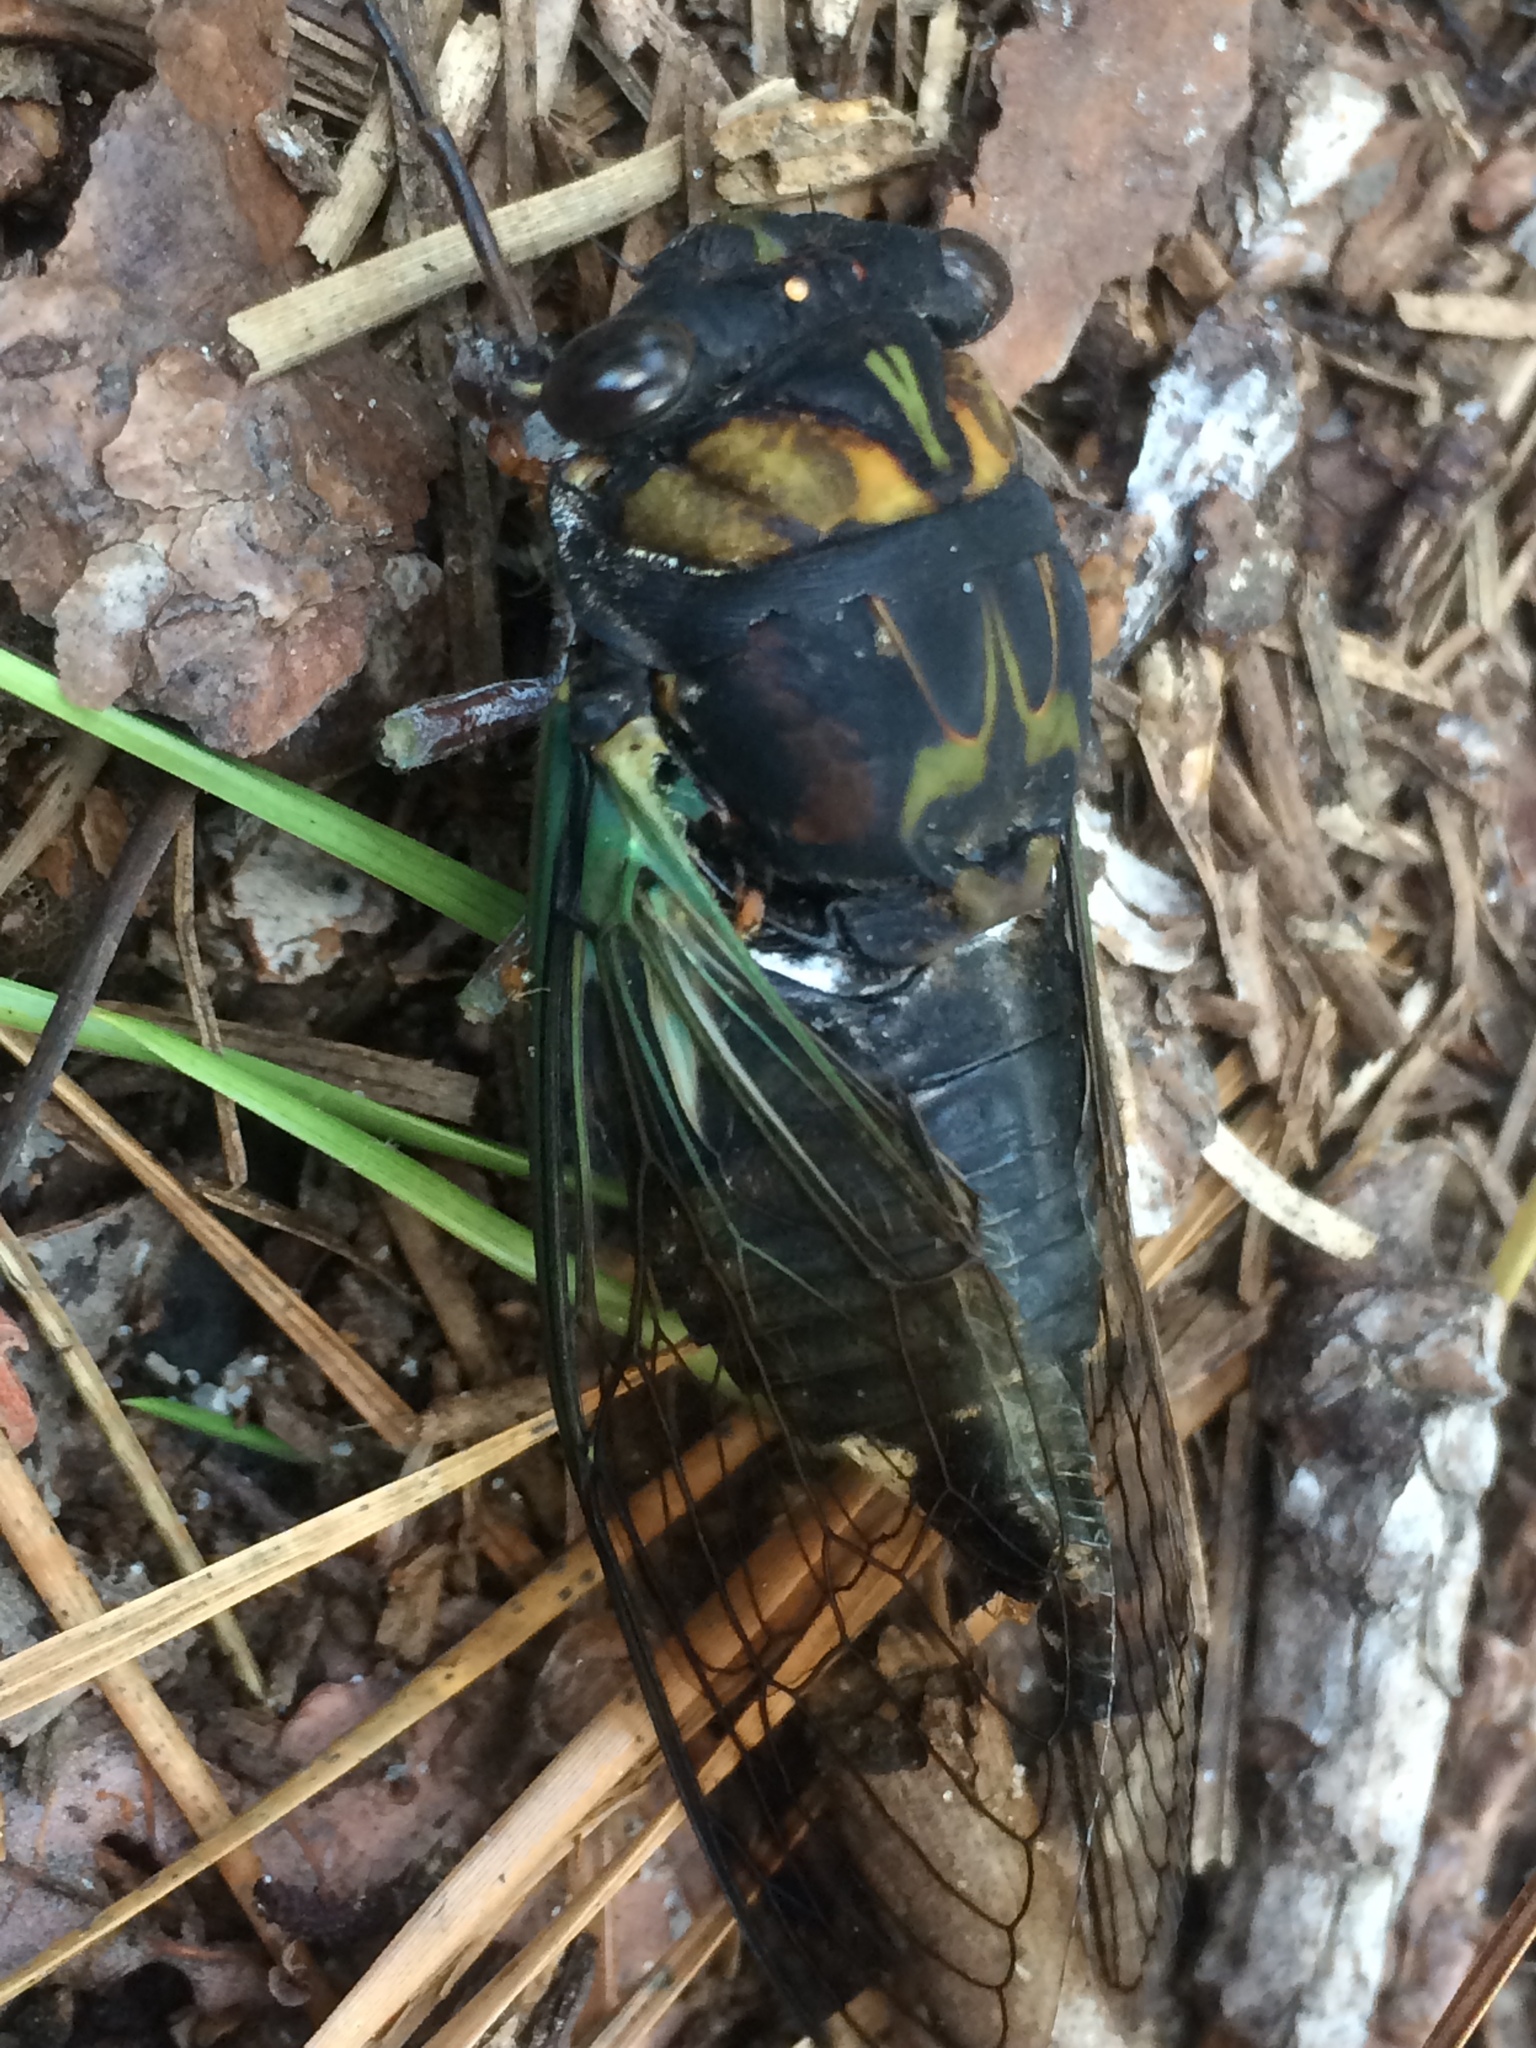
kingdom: Animalia
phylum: Arthropoda
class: Insecta
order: Hemiptera
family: Cicadidae
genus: Neotibicen
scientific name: Neotibicen lyricen
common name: Lyric cicada
